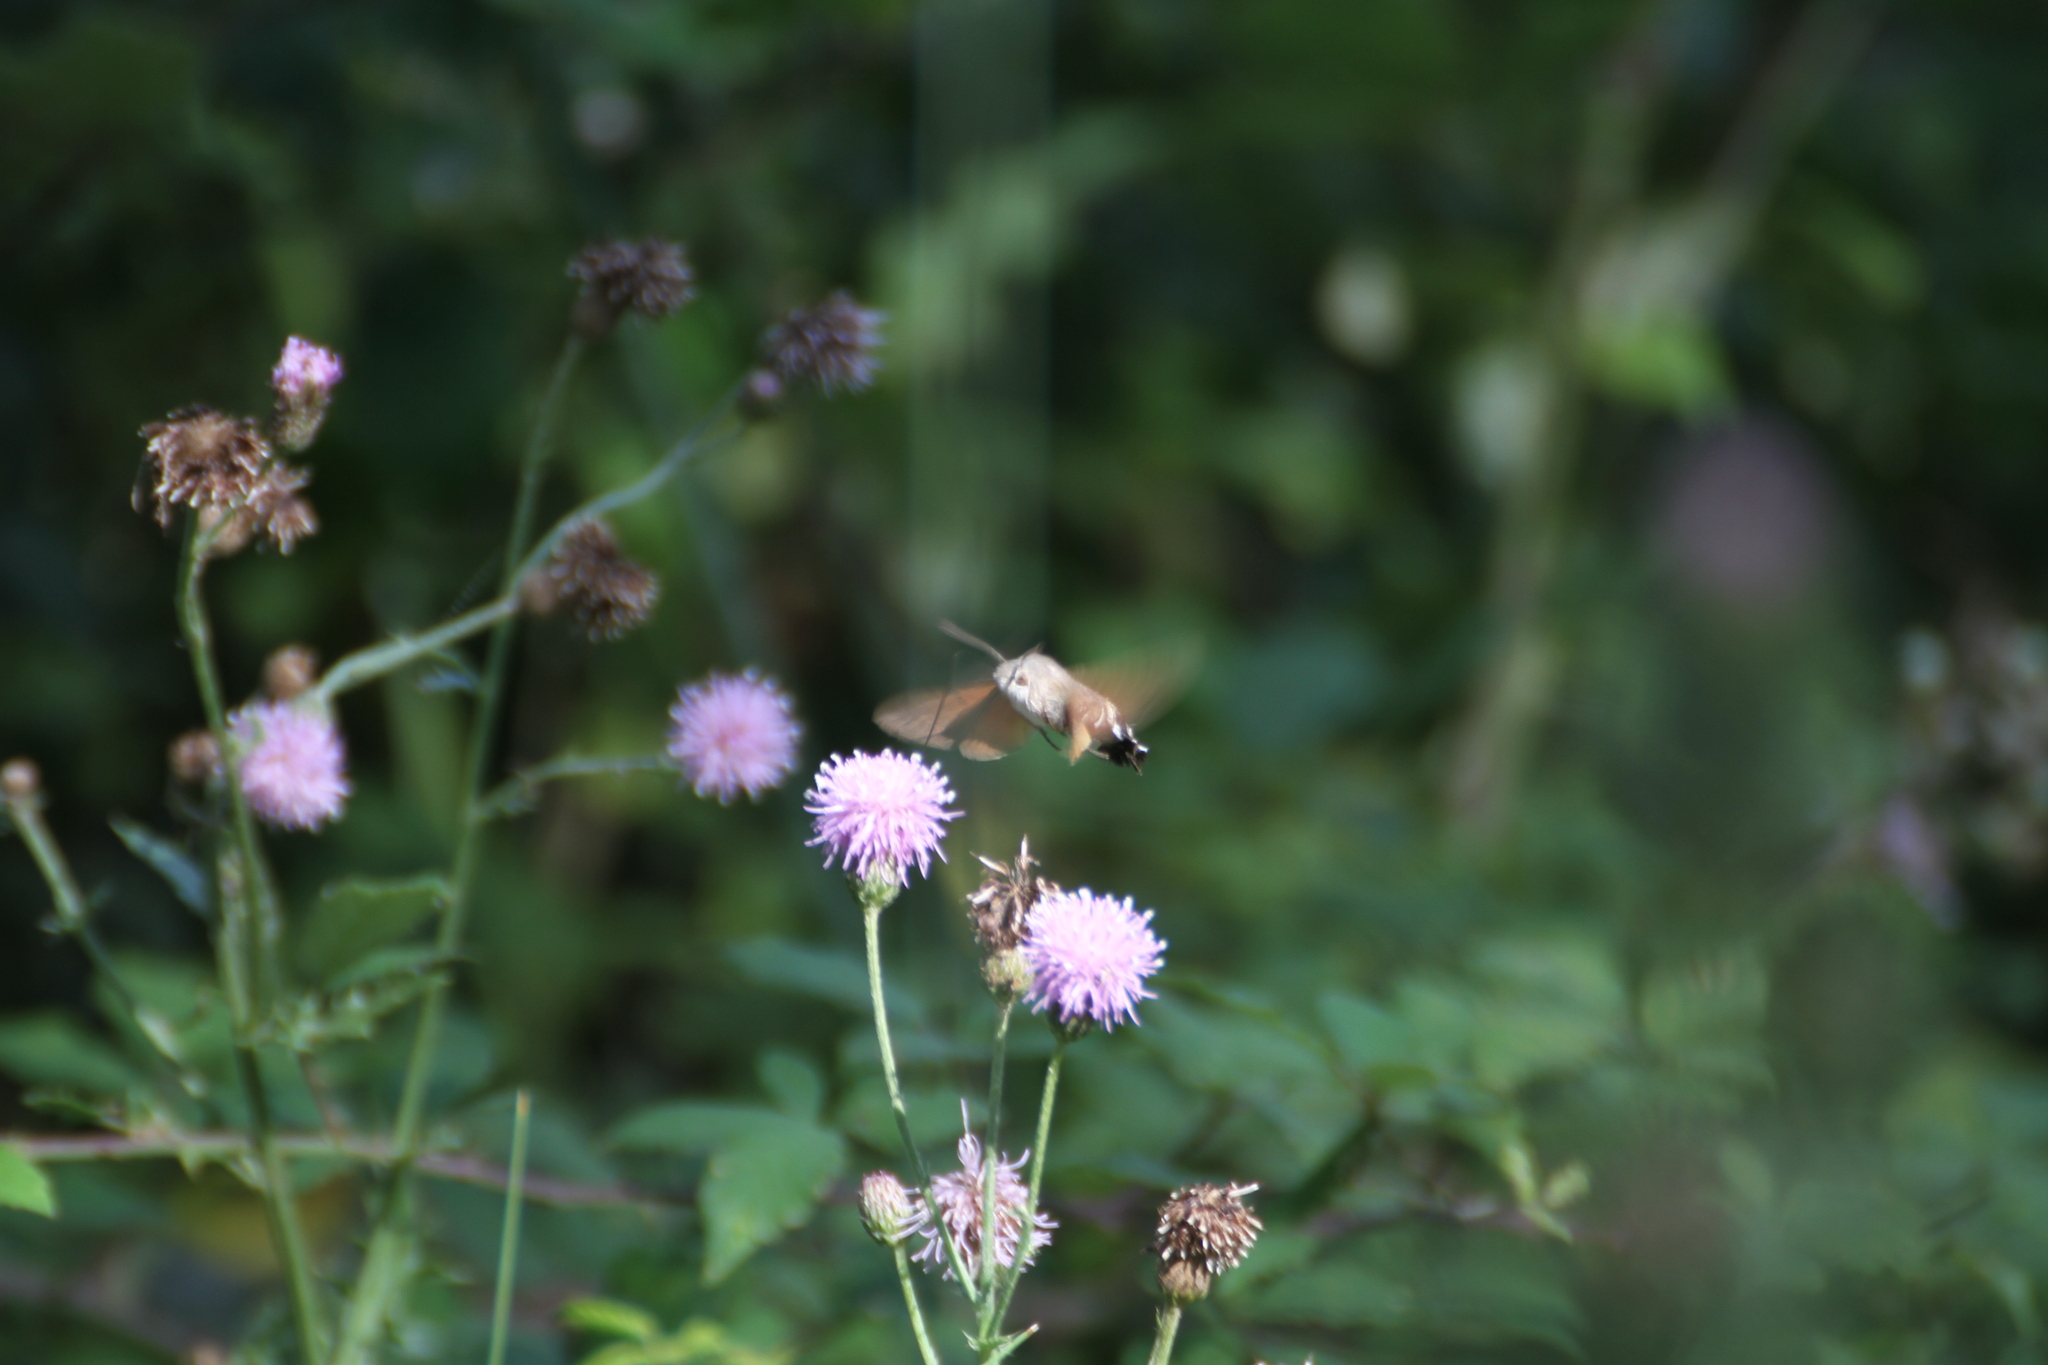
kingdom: Animalia
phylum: Arthropoda
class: Insecta
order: Lepidoptera
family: Sphingidae
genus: Macroglossum
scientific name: Macroglossum stellatarum
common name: Humming-bird hawk-moth
